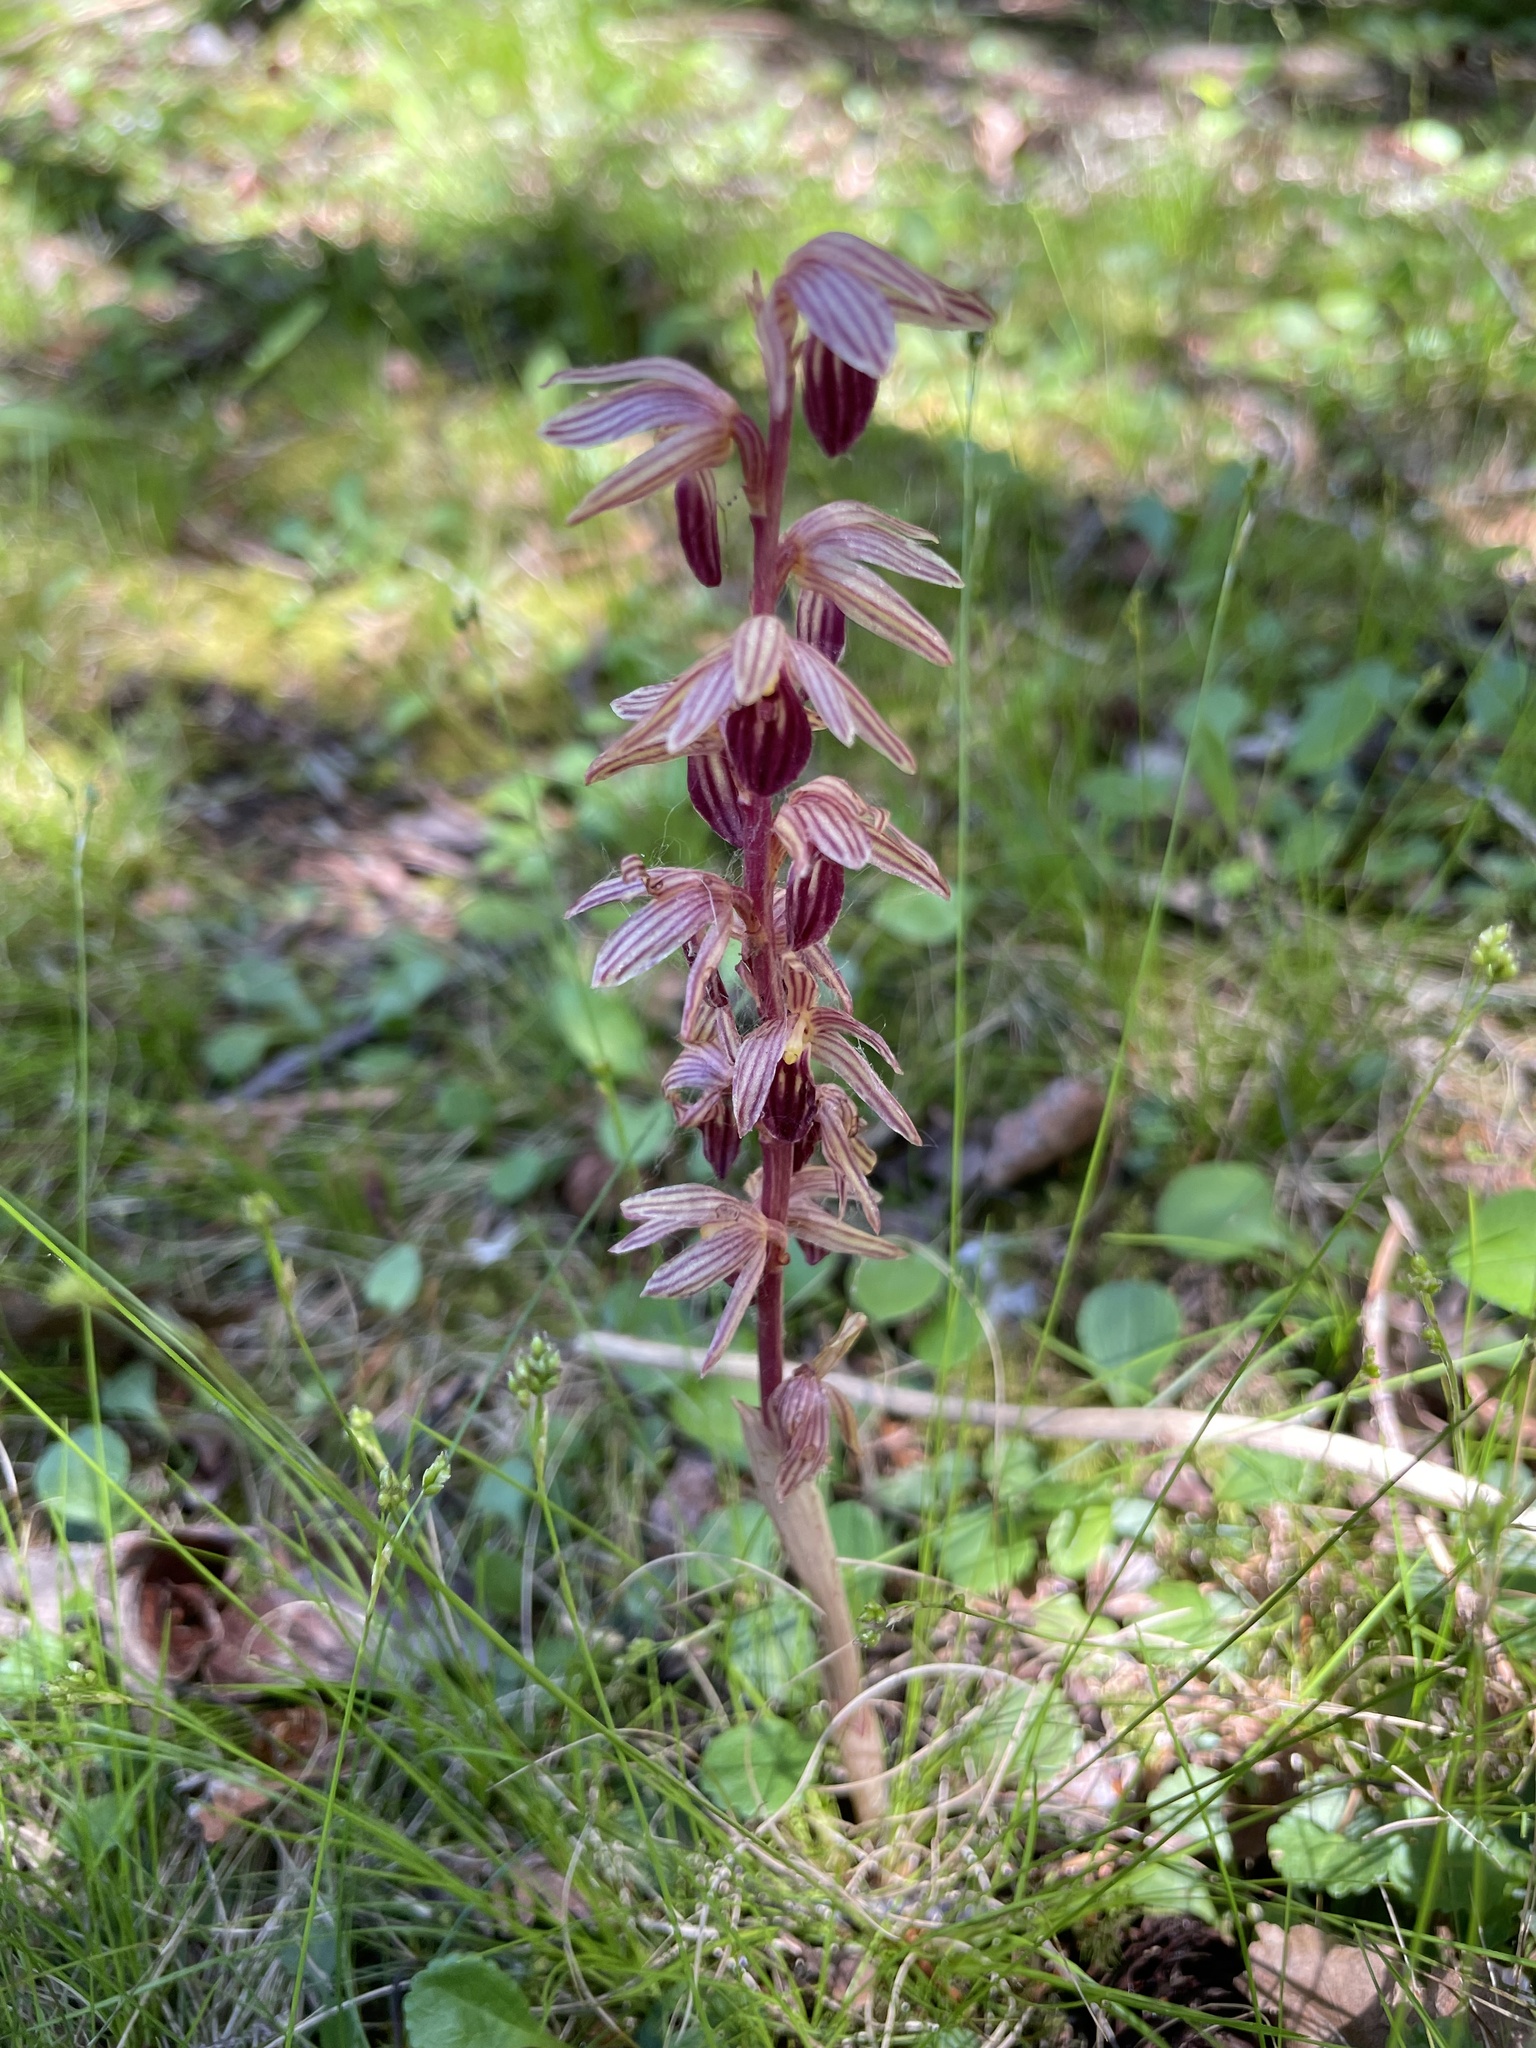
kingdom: Plantae
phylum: Tracheophyta
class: Liliopsida
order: Asparagales
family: Orchidaceae
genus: Corallorhiza
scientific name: Corallorhiza striata
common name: Hooded coralroot
